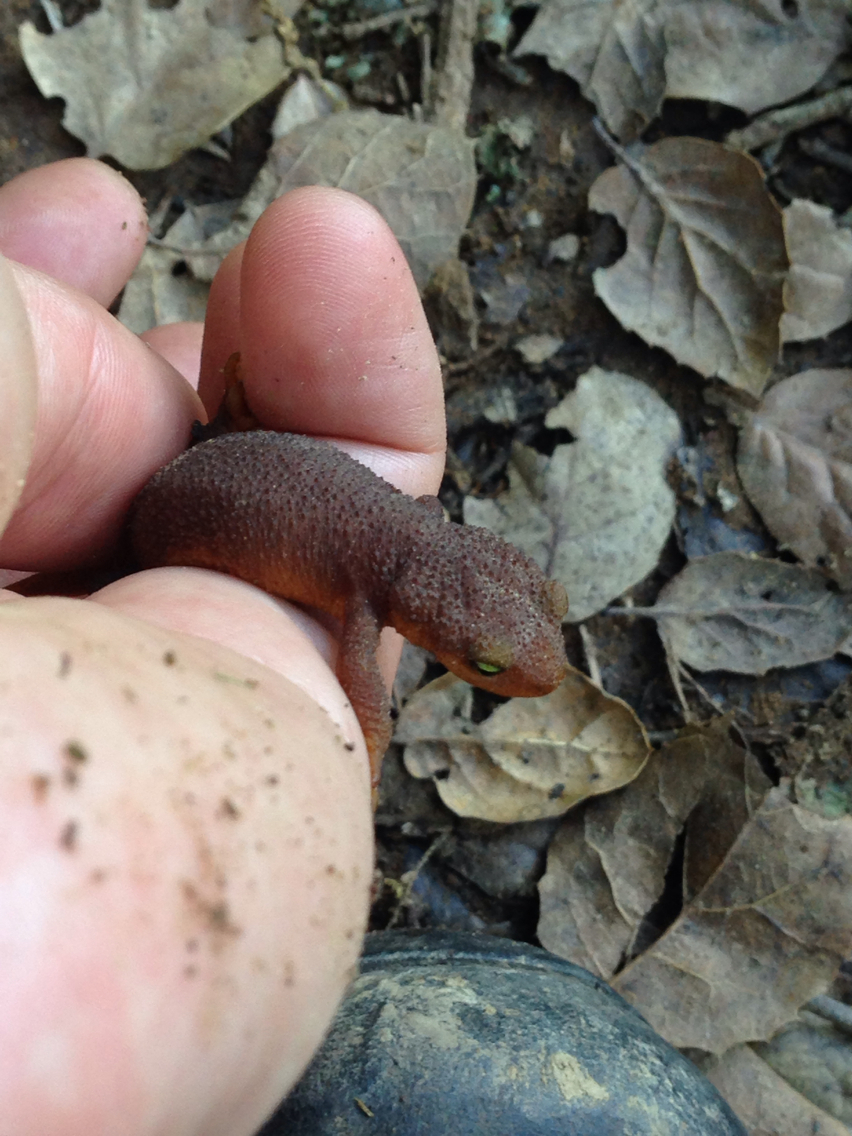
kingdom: Animalia
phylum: Chordata
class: Amphibia
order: Caudata
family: Salamandridae
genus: Taricha
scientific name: Taricha torosa
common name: California newt
